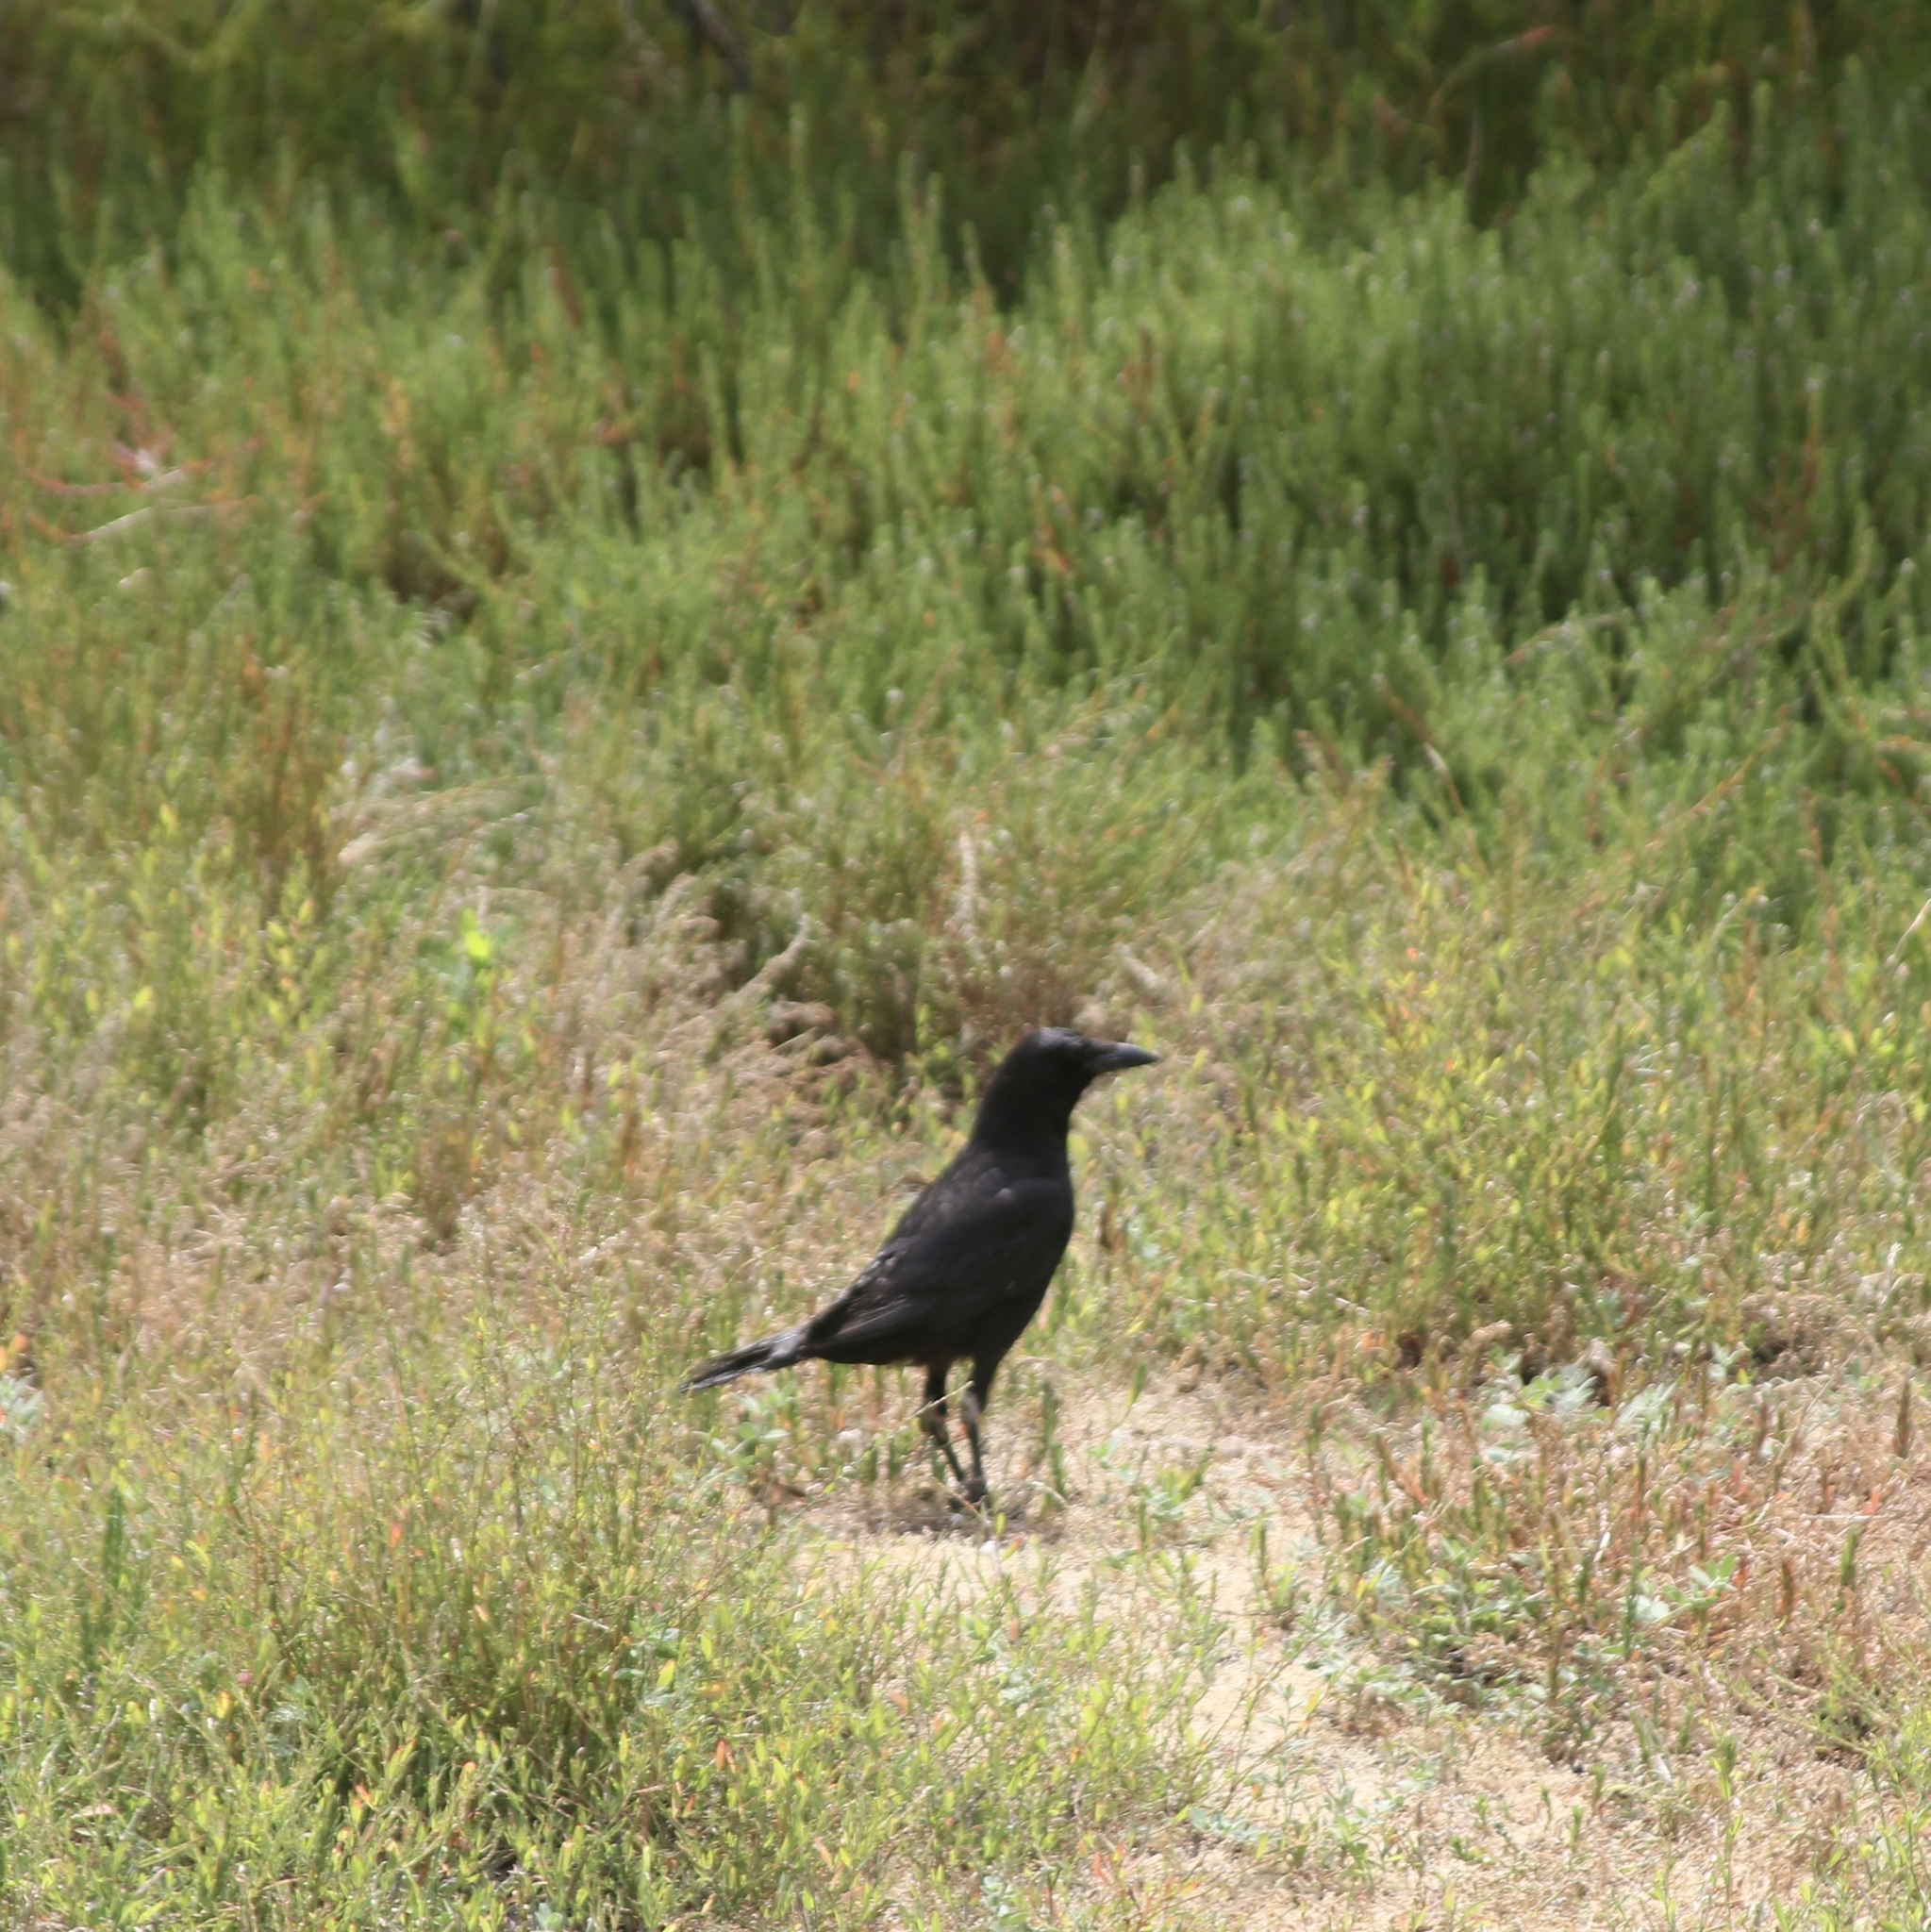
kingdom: Animalia
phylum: Chordata
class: Aves
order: Passeriformes
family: Corvidae
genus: Corvus
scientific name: Corvus brachyrhynchos
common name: American crow
